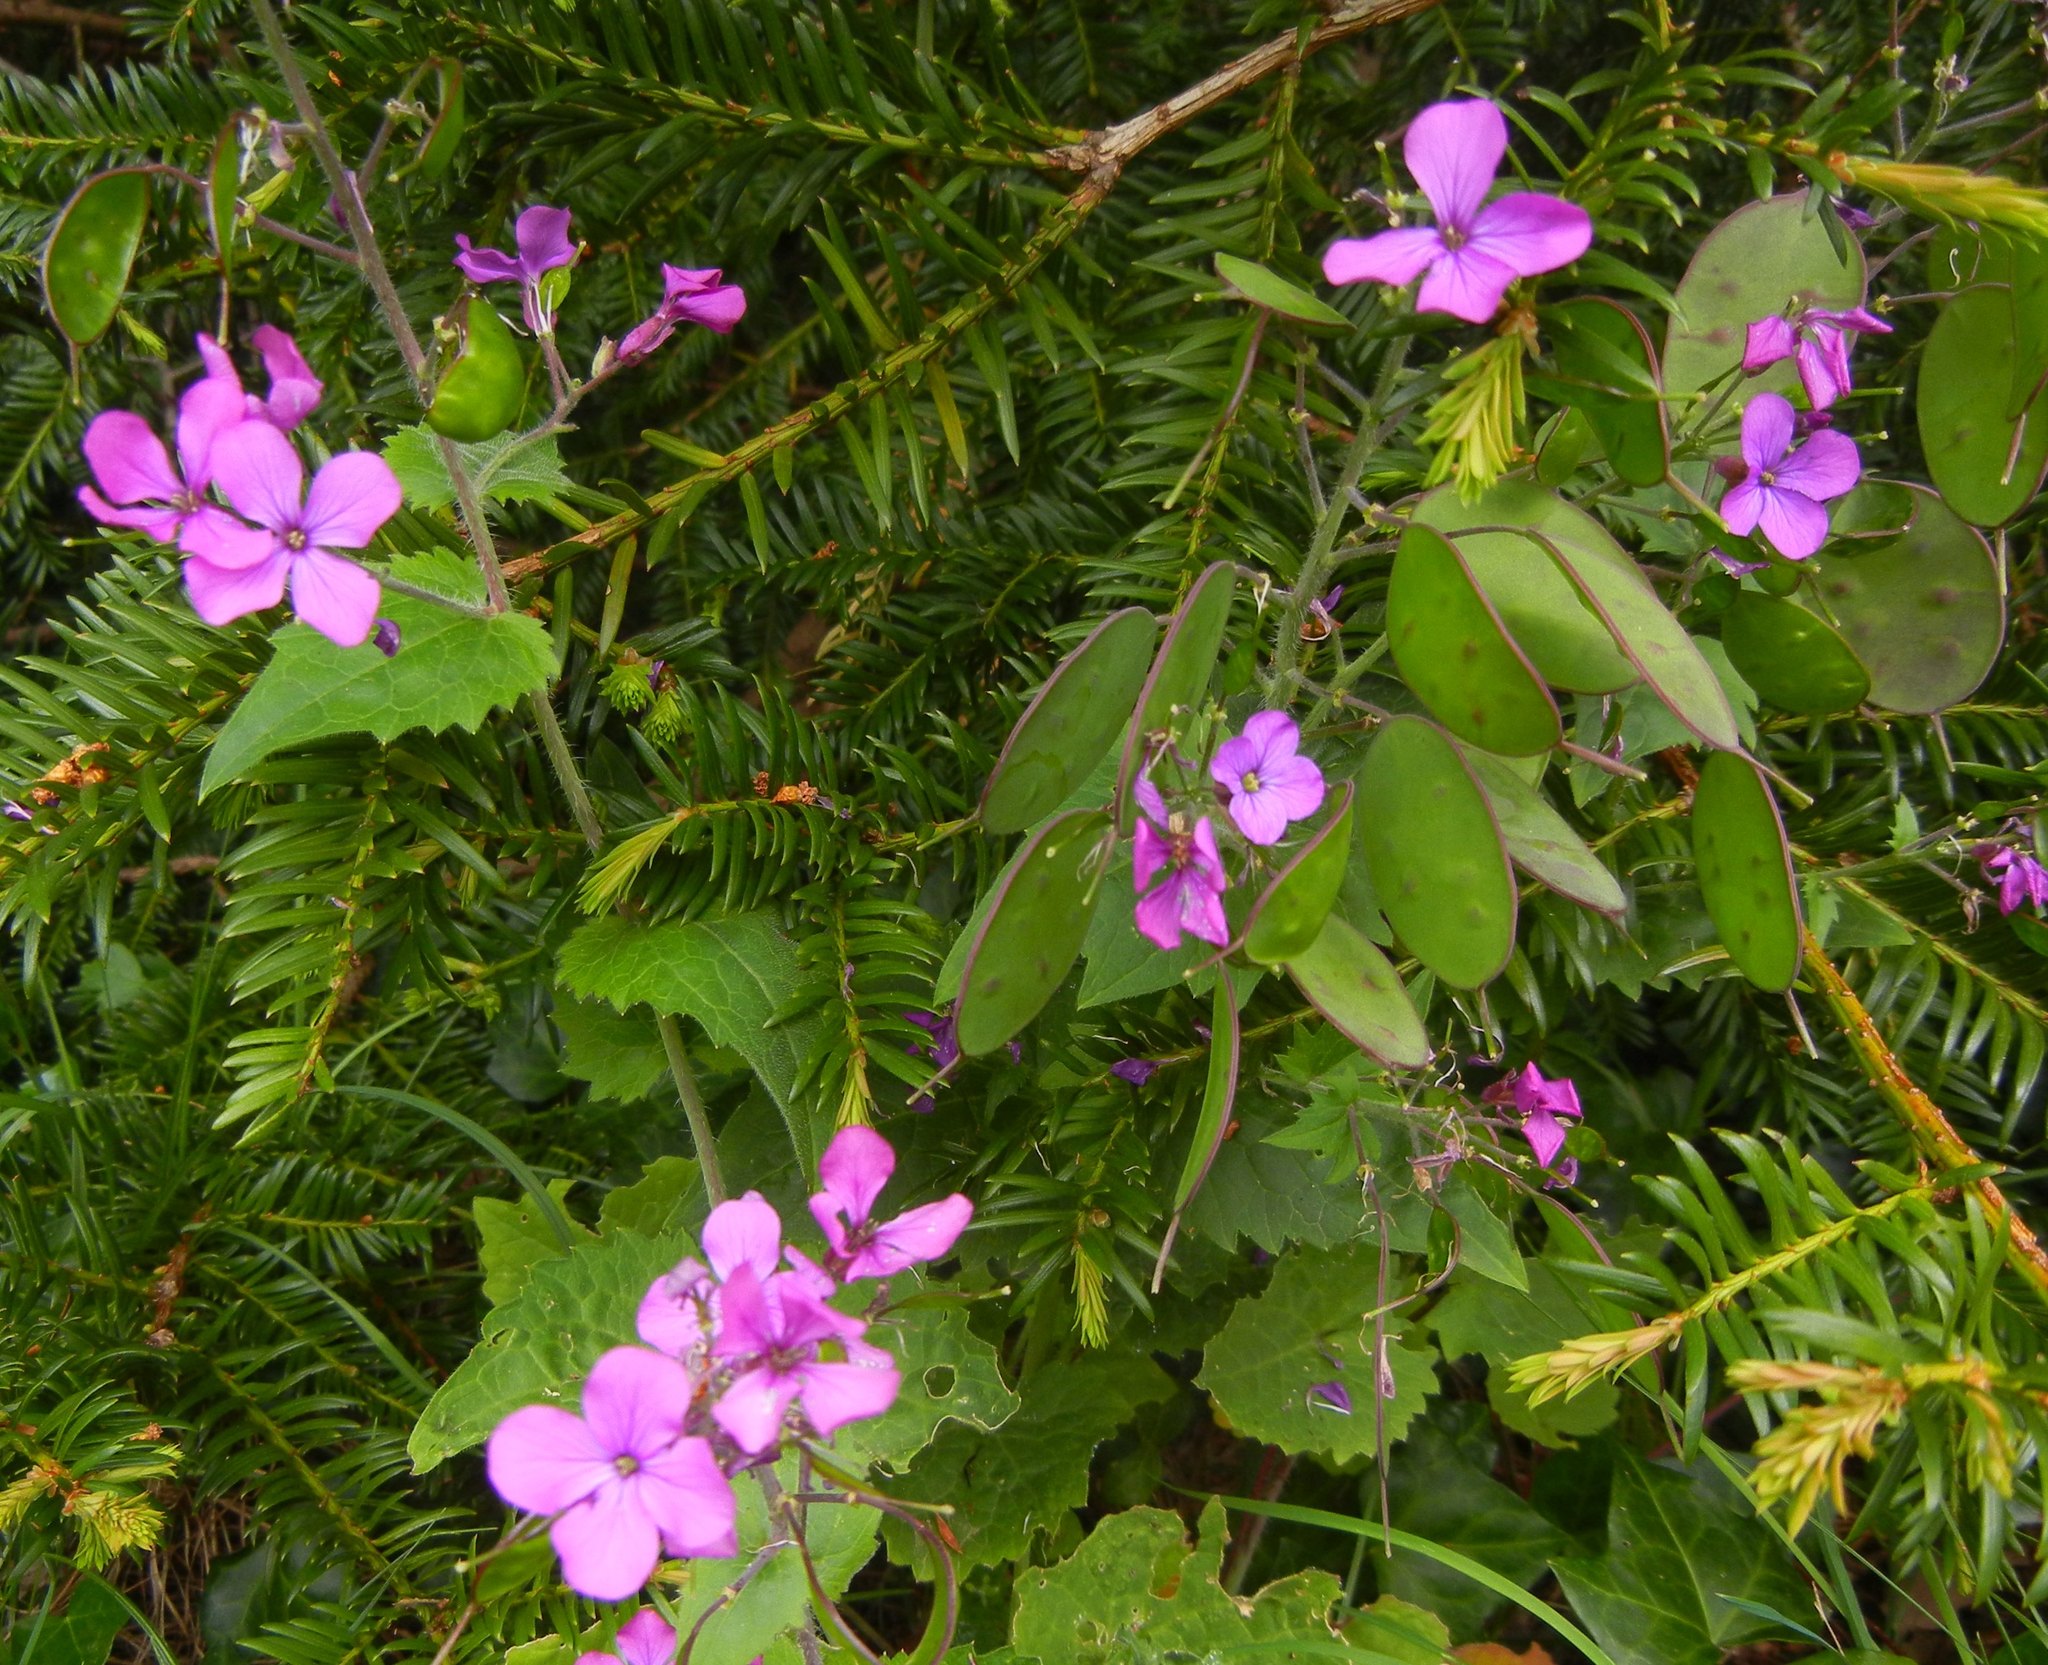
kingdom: Plantae
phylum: Tracheophyta
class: Magnoliopsida
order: Brassicales
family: Brassicaceae
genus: Lunaria
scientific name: Lunaria annua
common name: Honesty
